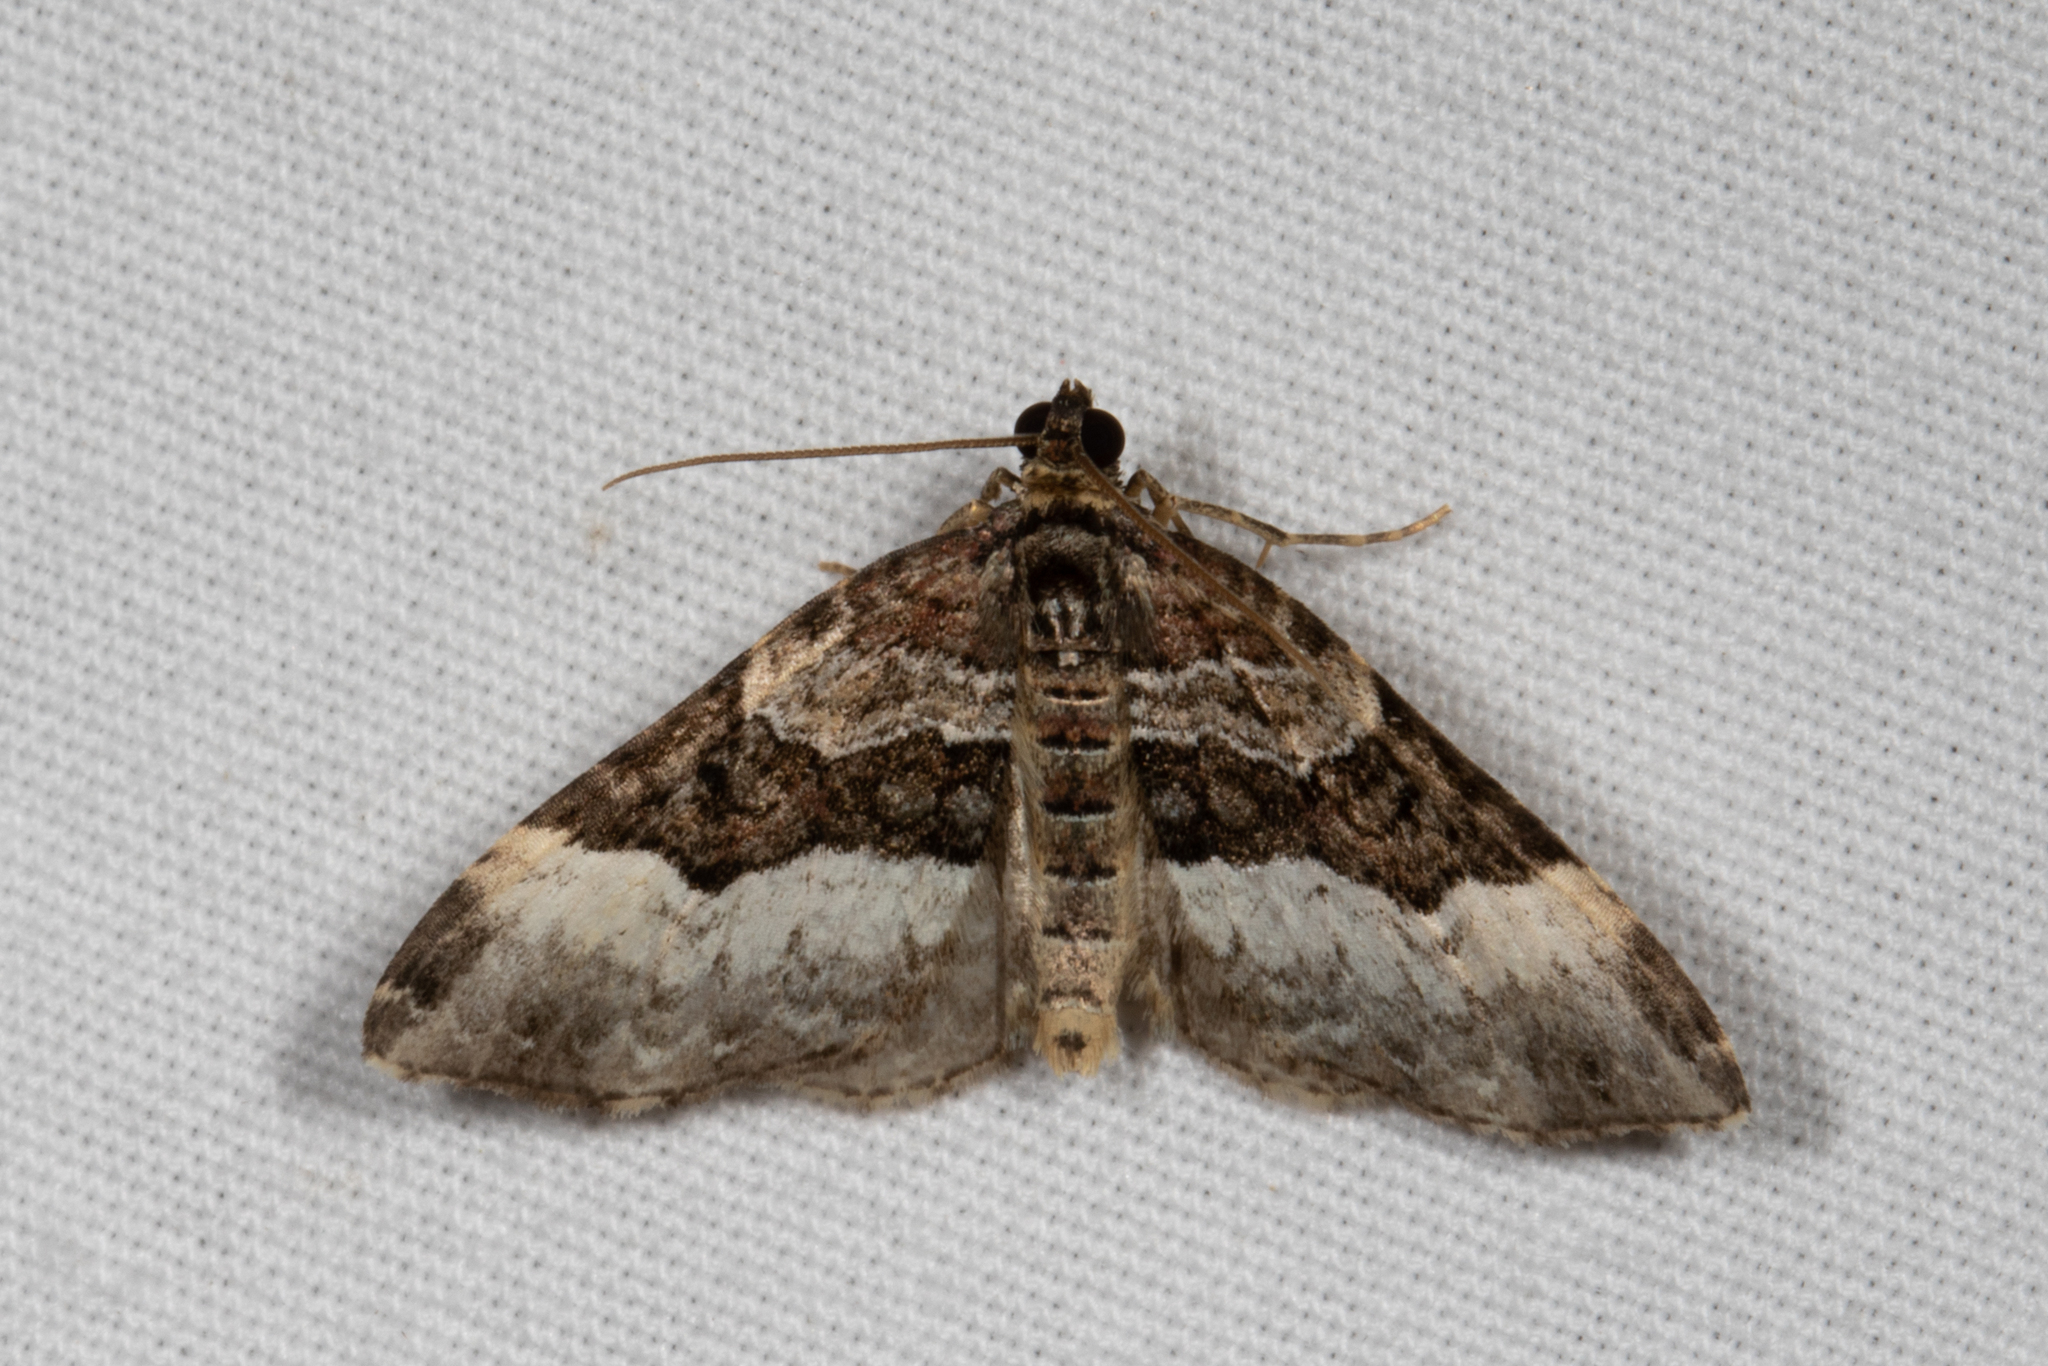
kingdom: Animalia
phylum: Arthropoda
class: Insecta
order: Lepidoptera
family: Geometridae
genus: Euphyia
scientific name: Euphyia intermediata
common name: Sharp-angled carpet
